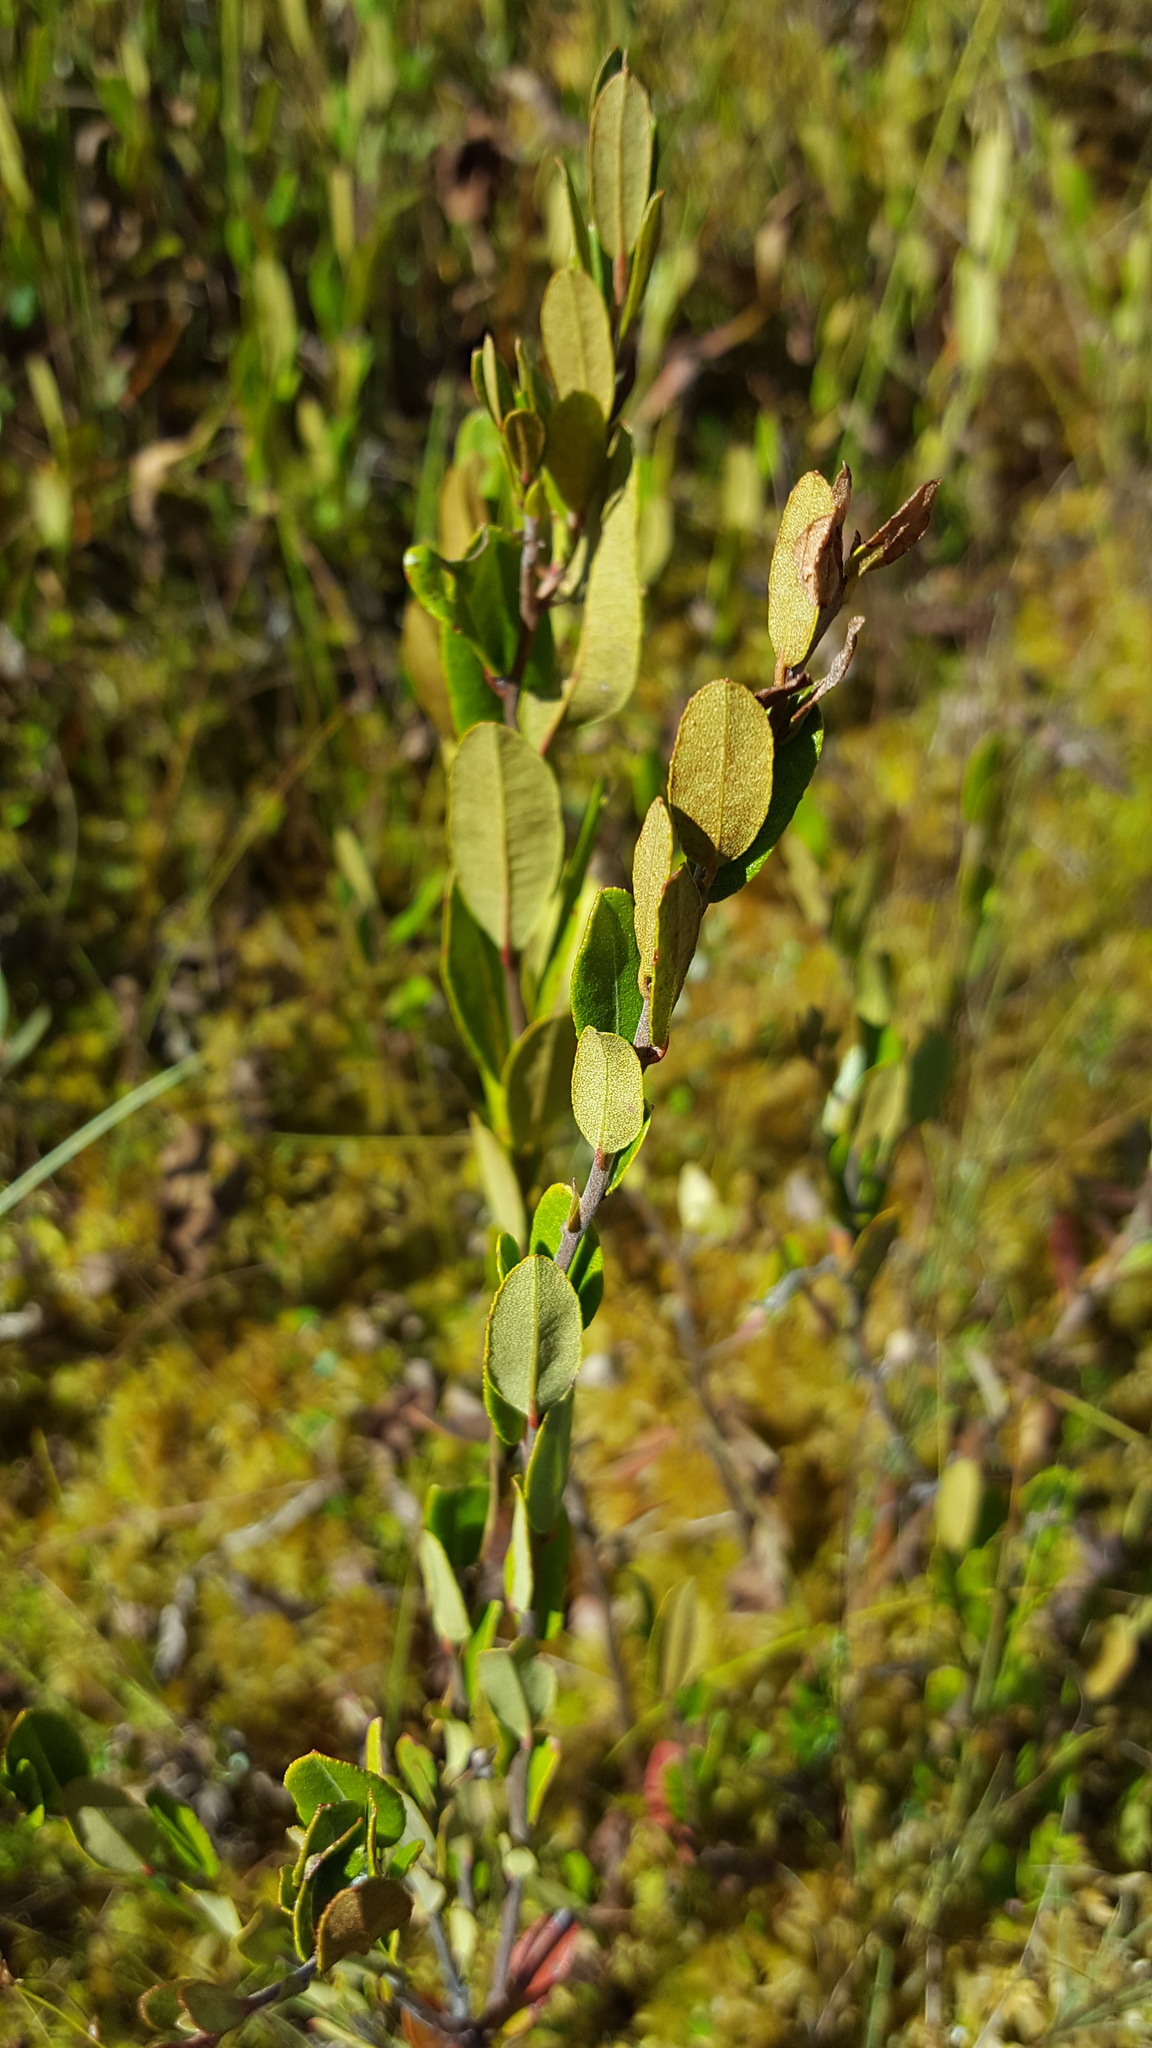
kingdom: Plantae
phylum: Tracheophyta
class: Magnoliopsida
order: Ericales
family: Ericaceae
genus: Chamaedaphne
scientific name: Chamaedaphne calyculata
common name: Leatherleaf
